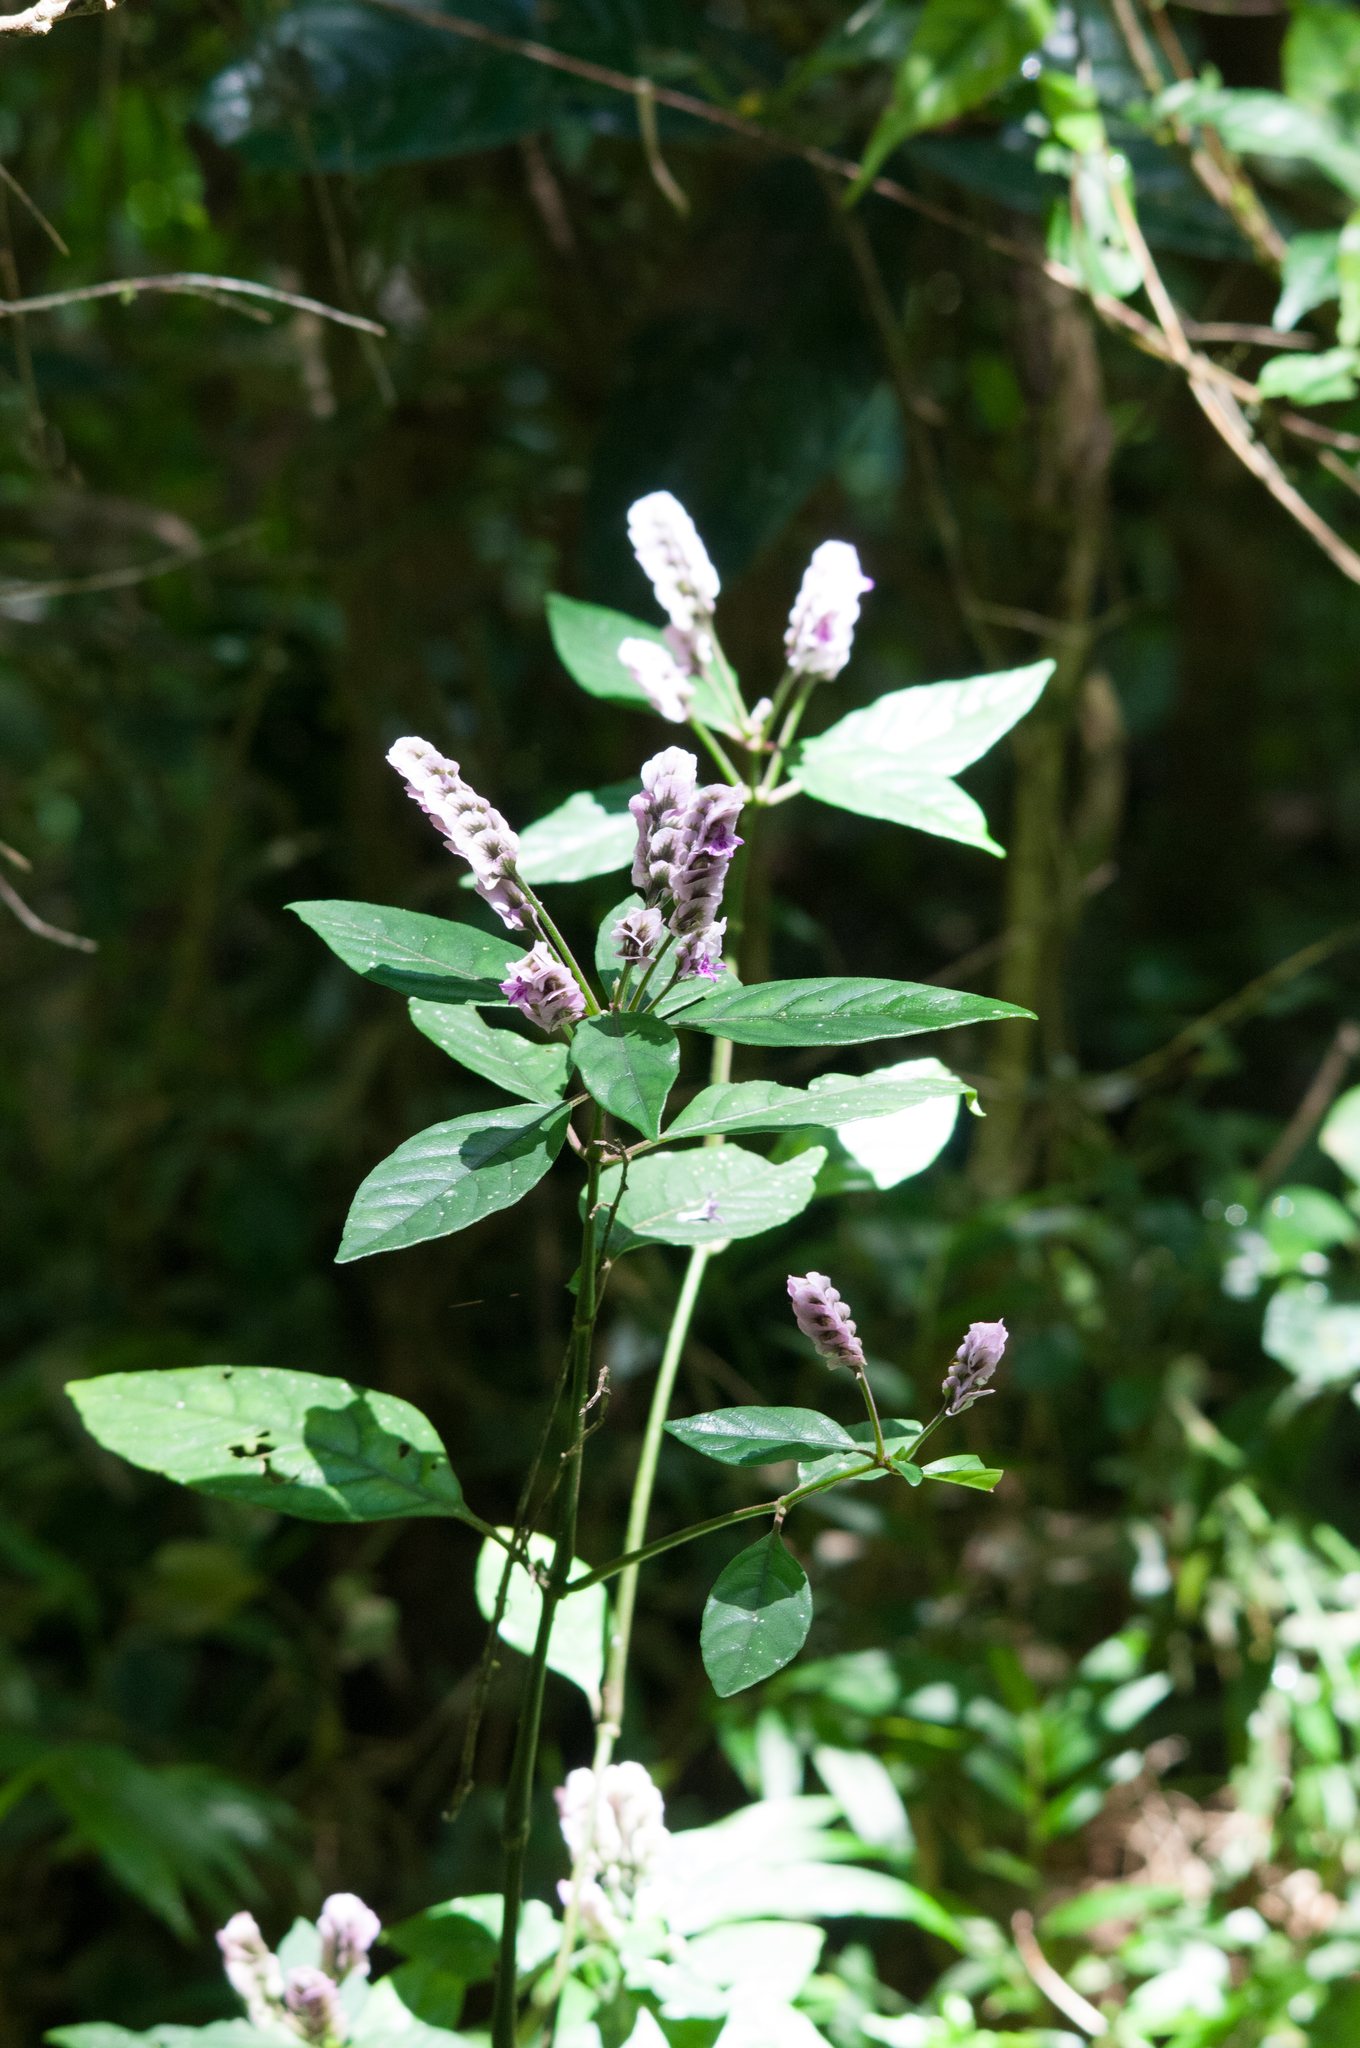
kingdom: Plantae
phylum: Tracheophyta
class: Magnoliopsida
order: Lamiales
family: Acanthaceae
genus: Justicia
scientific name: Justicia rhodoptera
